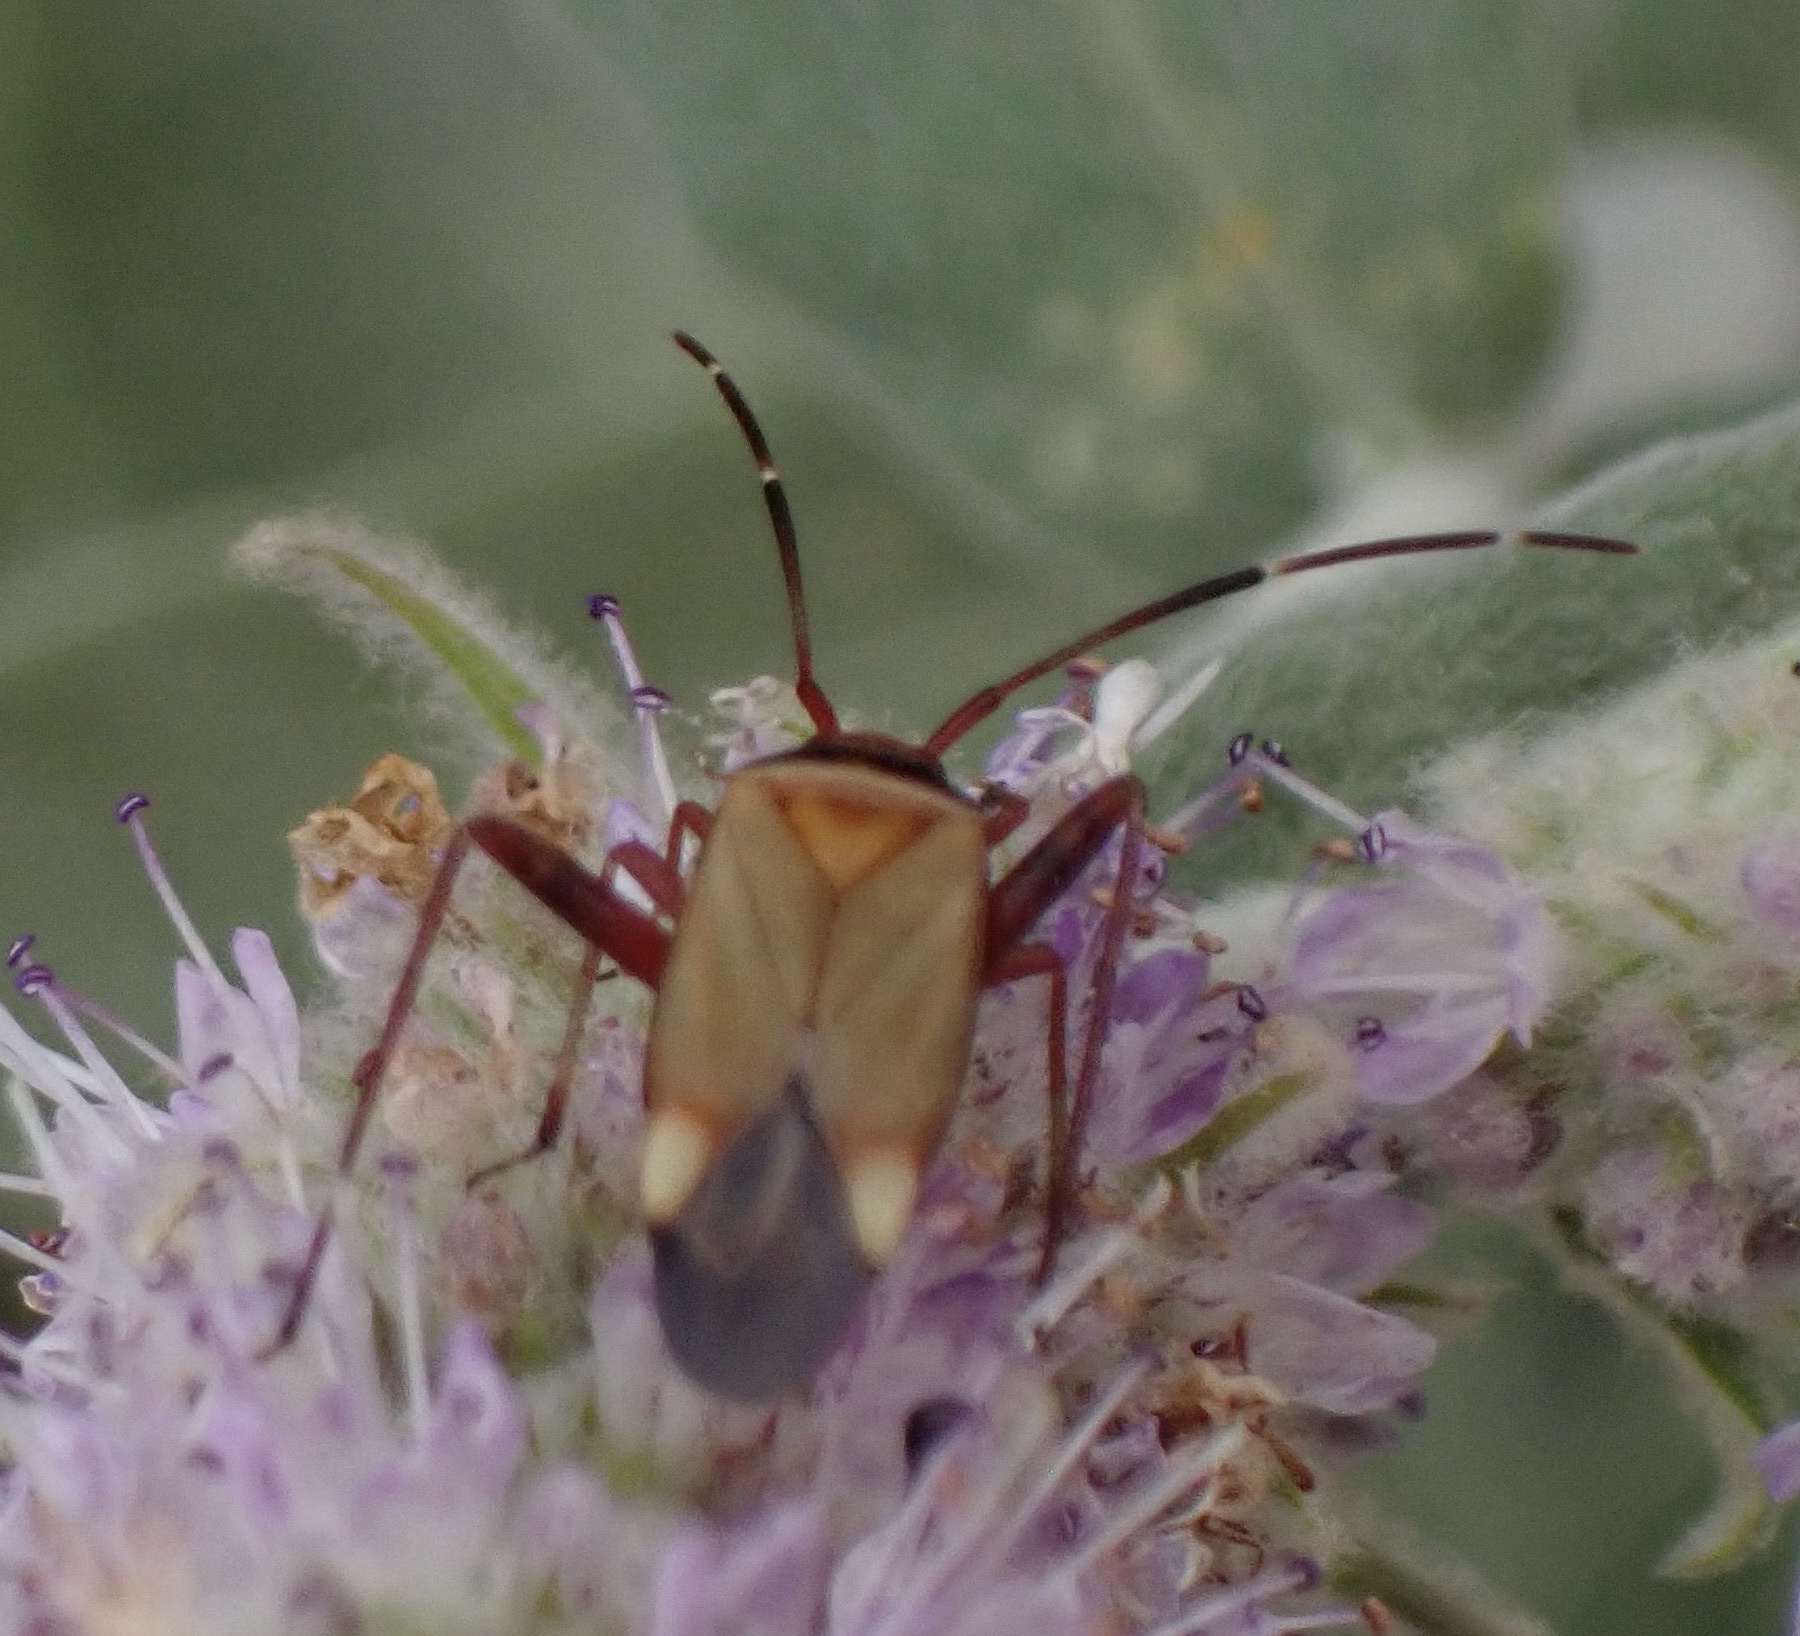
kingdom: Animalia
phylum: Arthropoda
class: Insecta
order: Hemiptera
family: Miridae
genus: Adelphocoris
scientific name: Adelphocoris vandalicus
